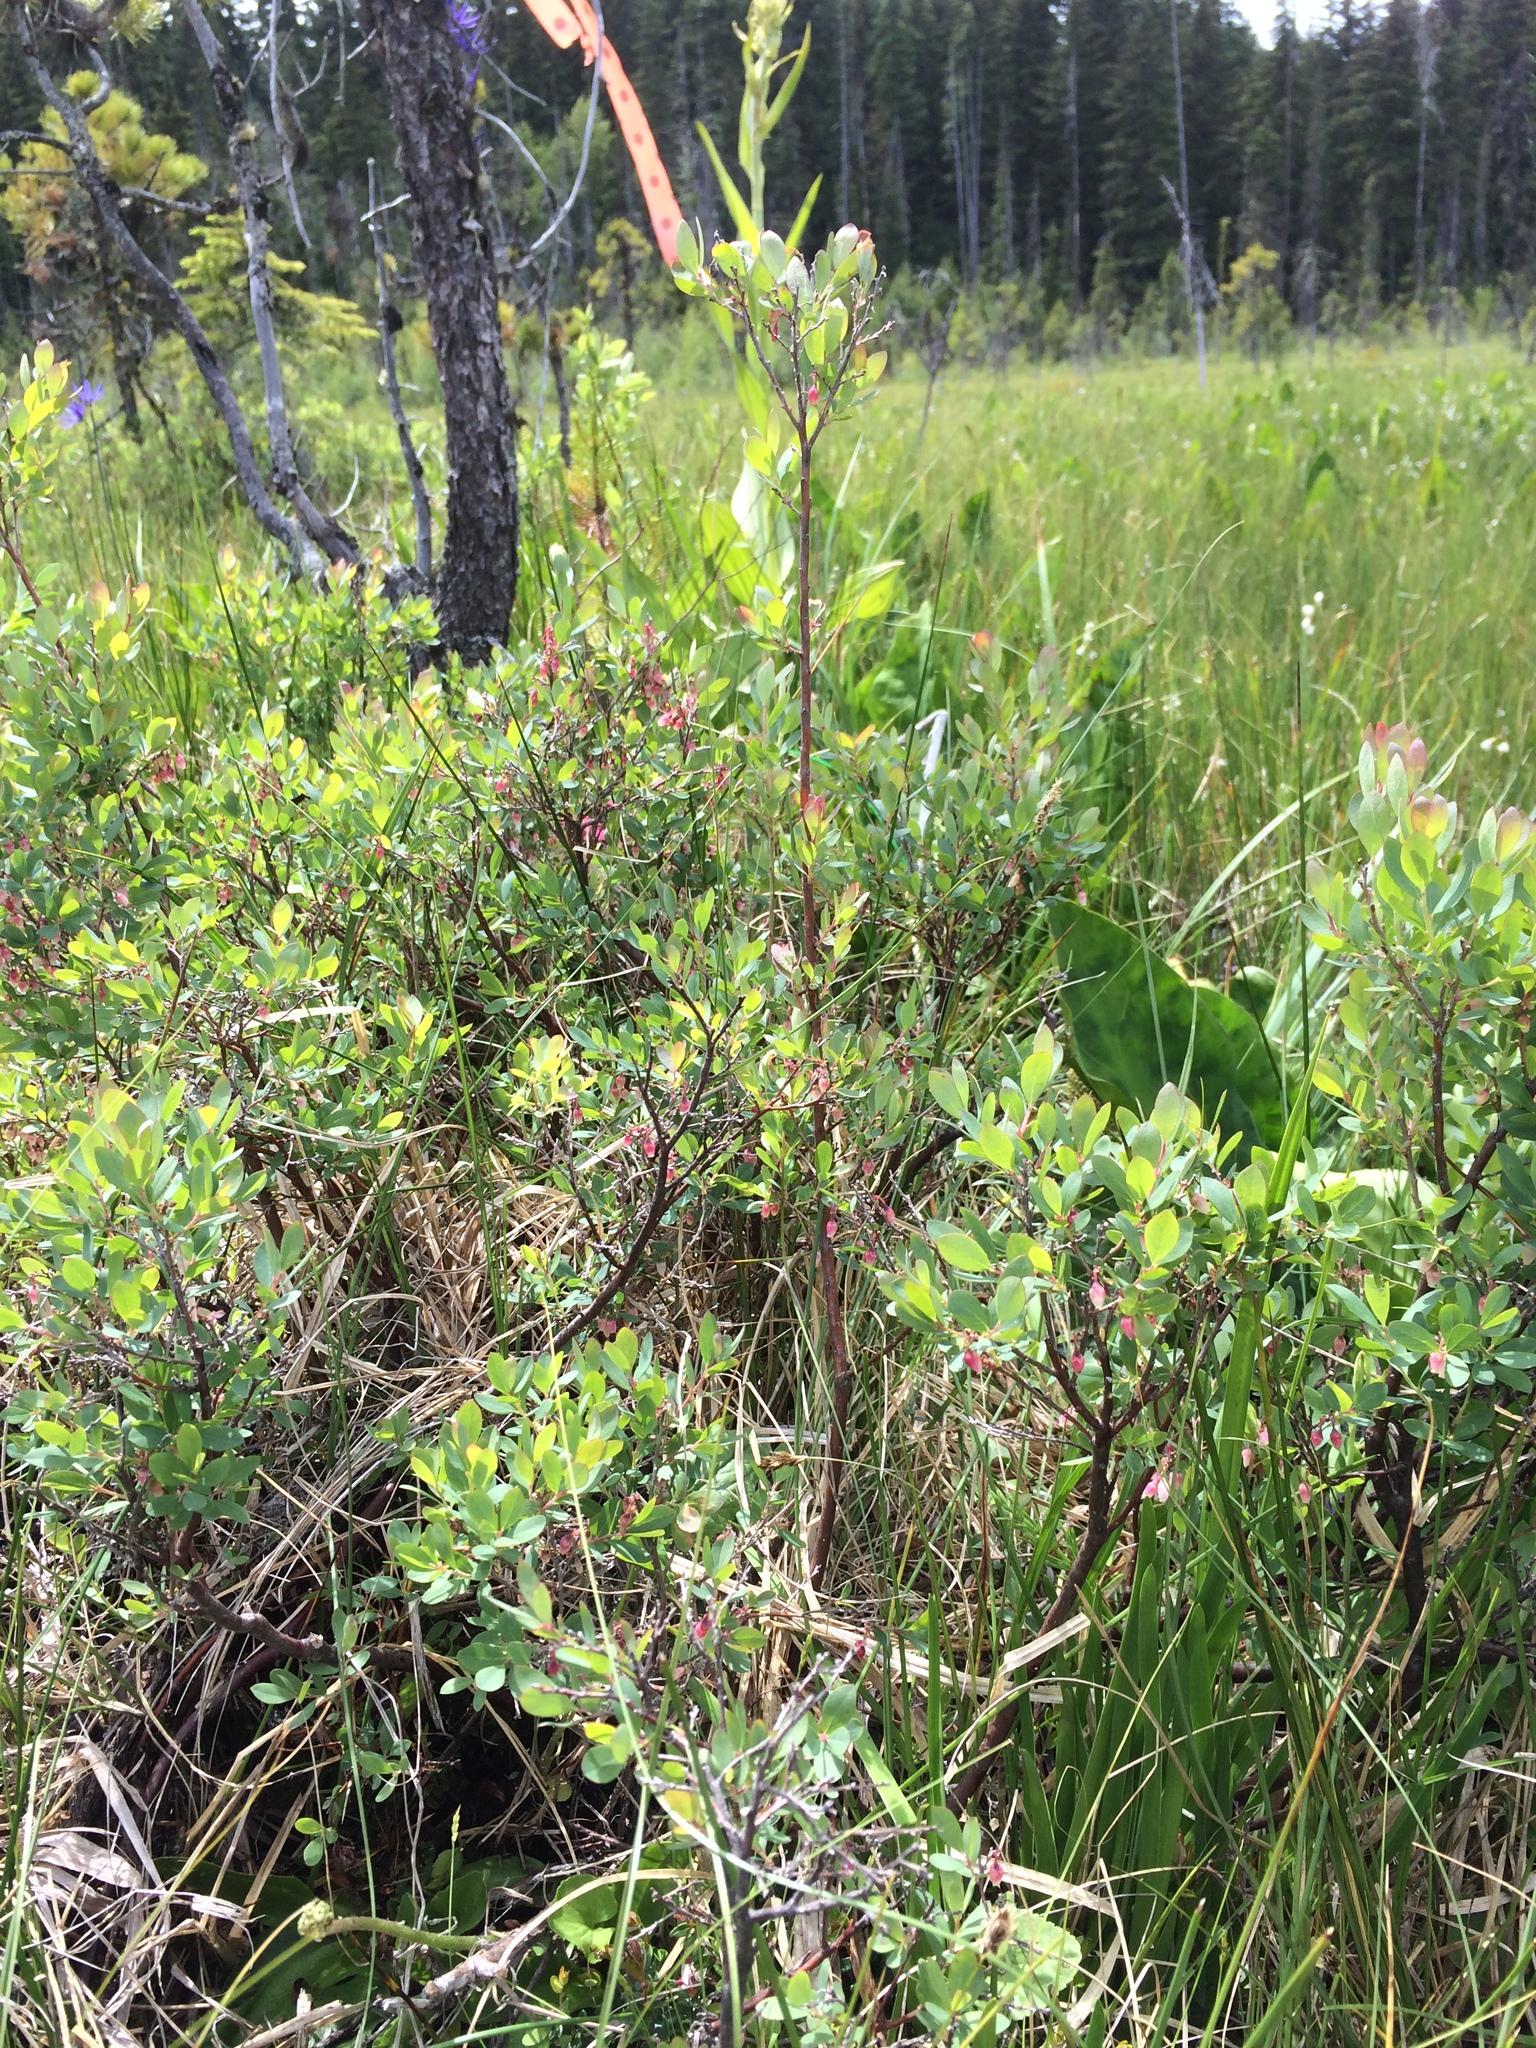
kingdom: Plantae
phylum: Tracheophyta
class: Magnoliopsida
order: Ericales
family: Ericaceae
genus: Vaccinium
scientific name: Vaccinium uliginosum
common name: Bog bilberry
